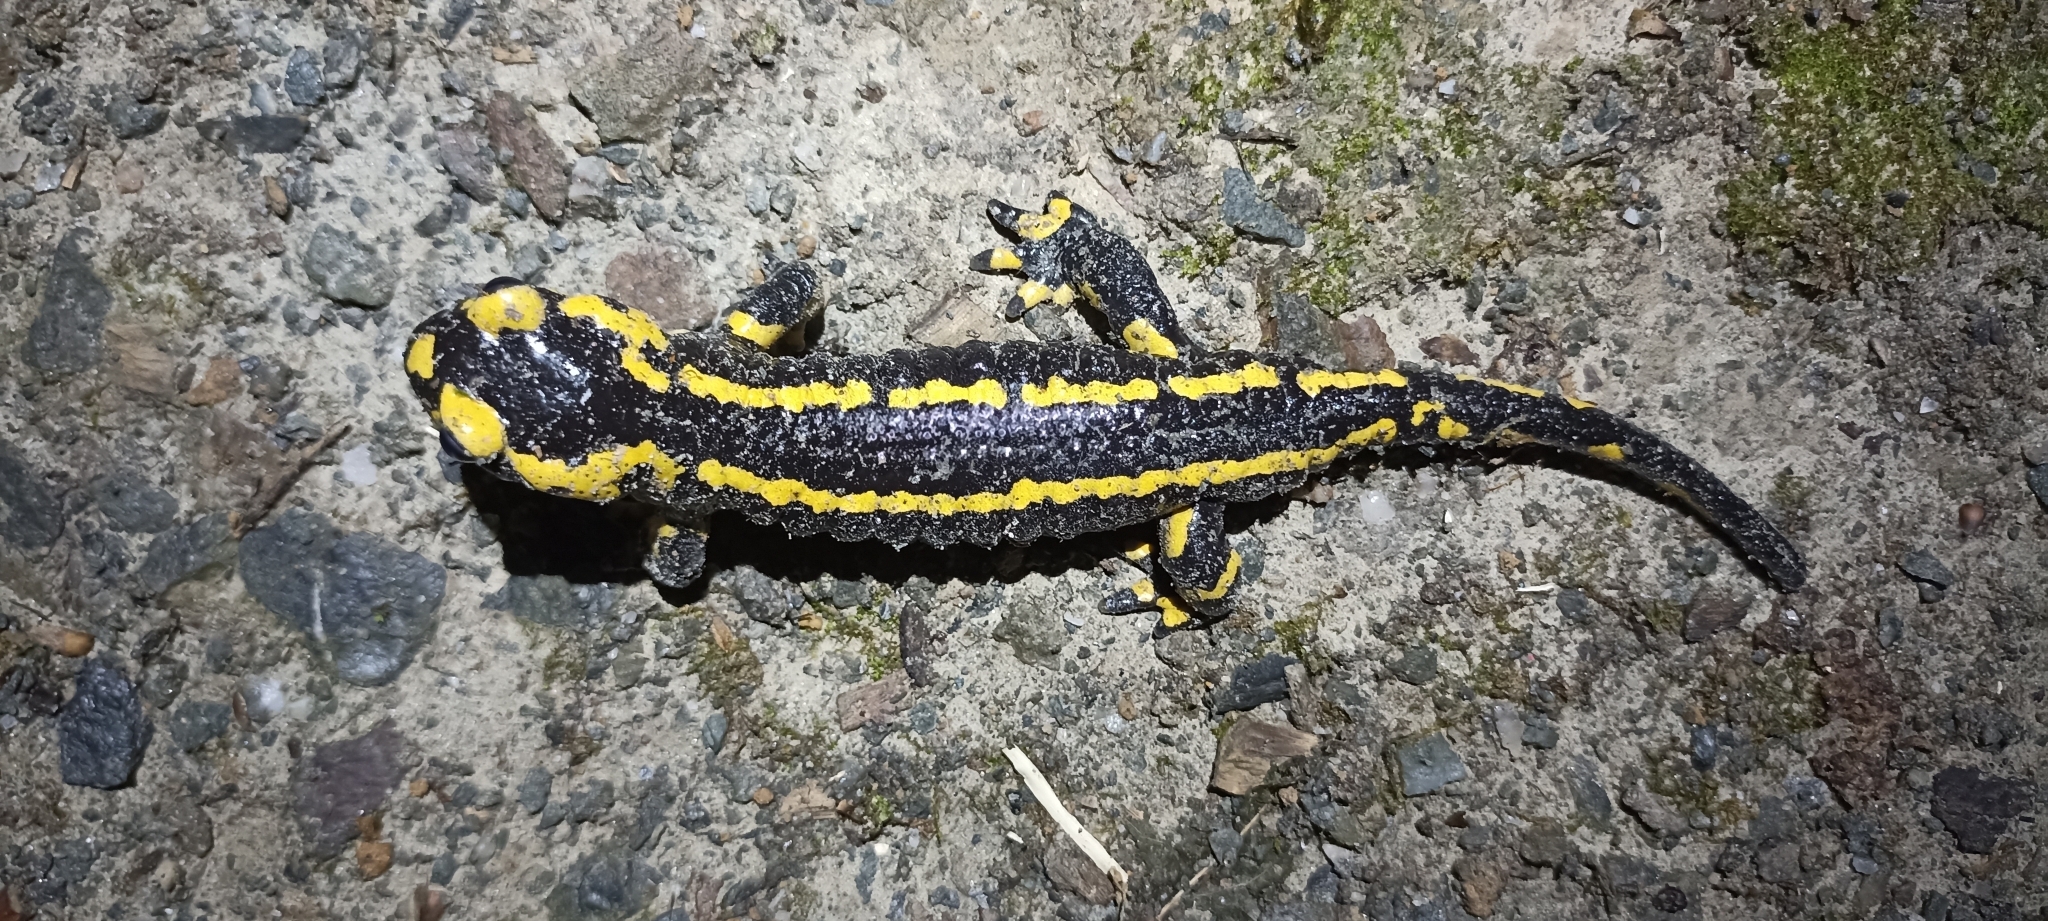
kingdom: Animalia
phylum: Chordata
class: Amphibia
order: Caudata
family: Salamandridae
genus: Salamandra
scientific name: Salamandra salamandra
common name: Fire salamander
